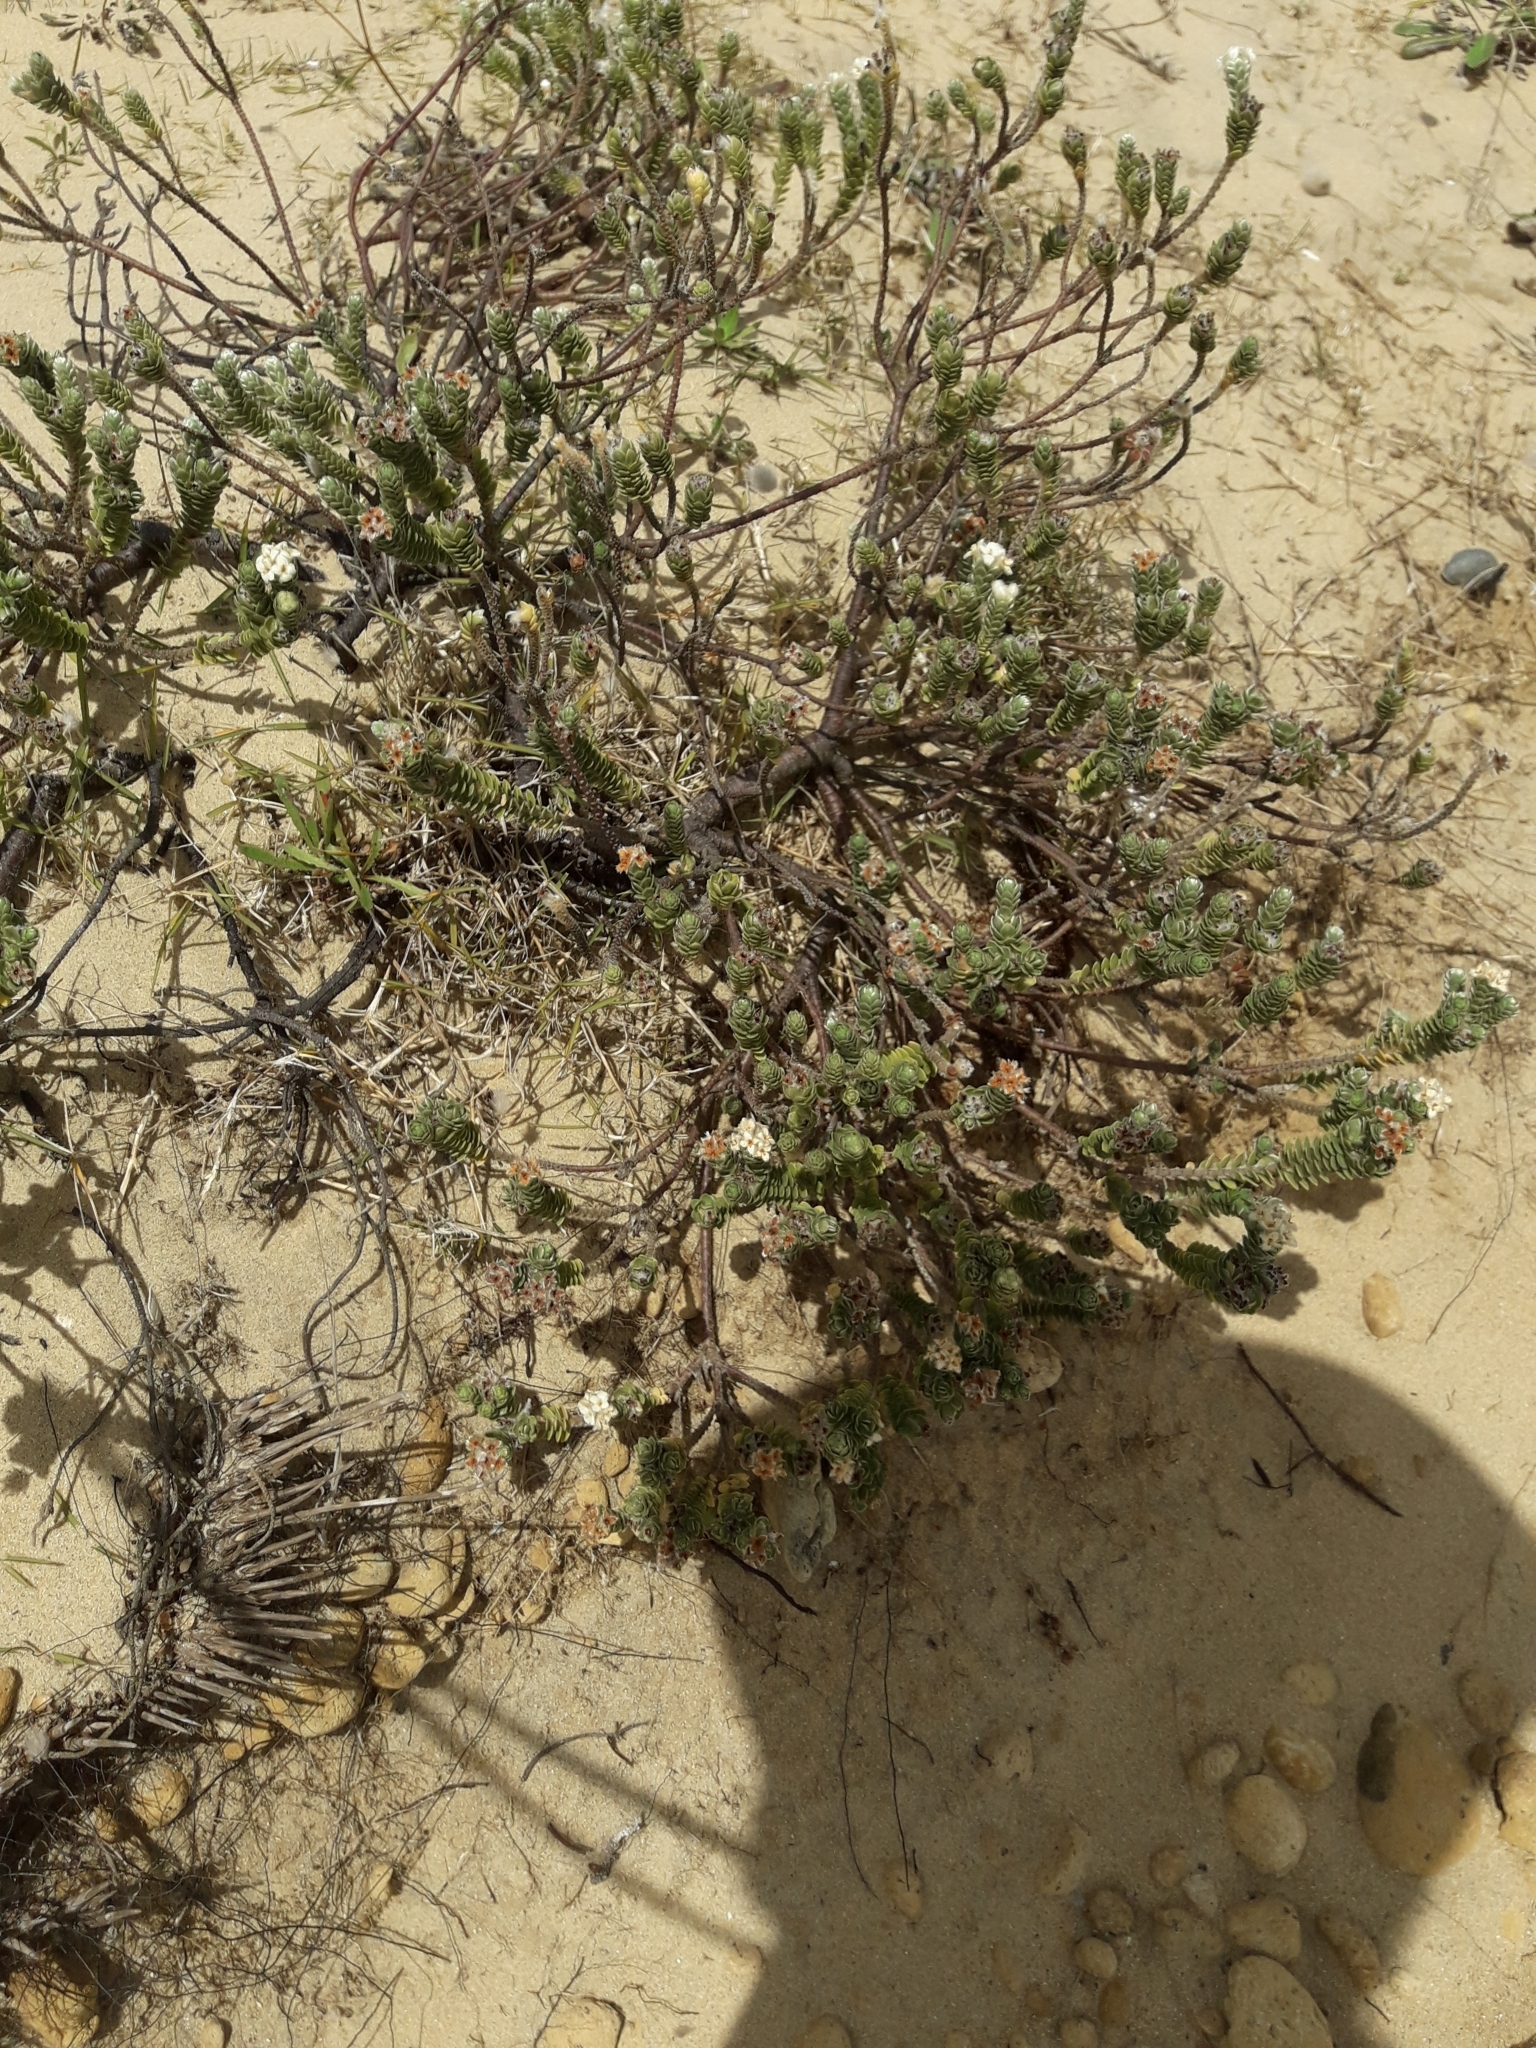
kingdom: Plantae
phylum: Tracheophyta
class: Magnoliopsida
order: Malvales
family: Thymelaeaceae
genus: Pimelea
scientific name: Pimelea villosa
